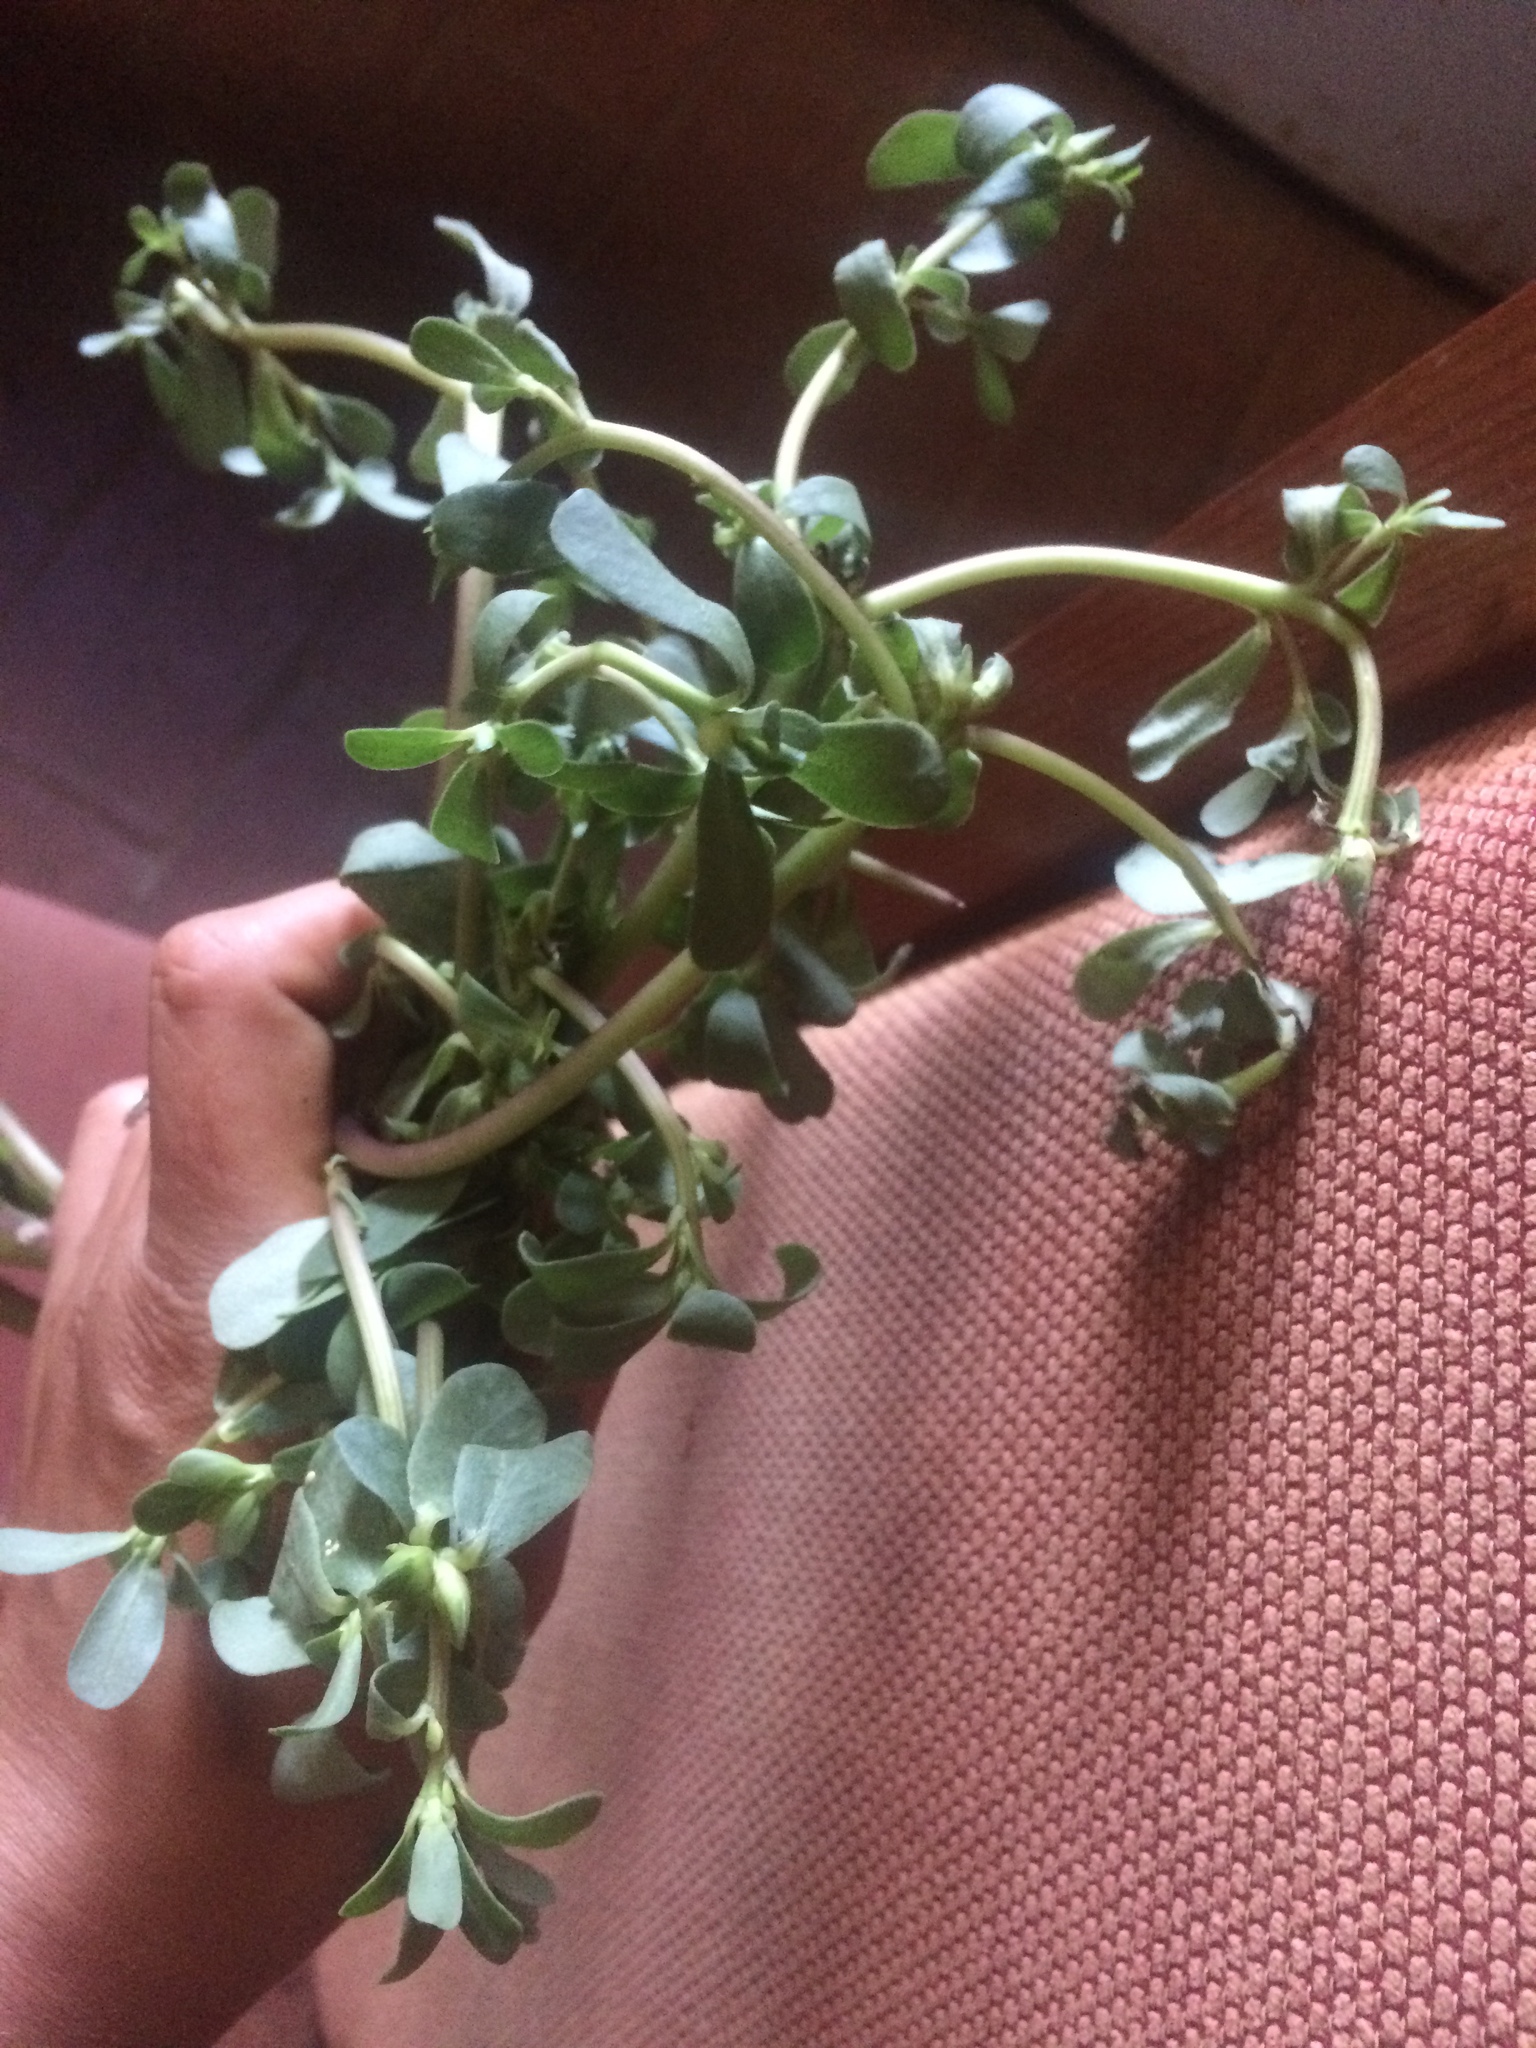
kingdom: Plantae
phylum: Tracheophyta
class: Magnoliopsida
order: Caryophyllales
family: Portulacaceae
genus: Portulaca
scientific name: Portulaca oleracea
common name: Common purslane
